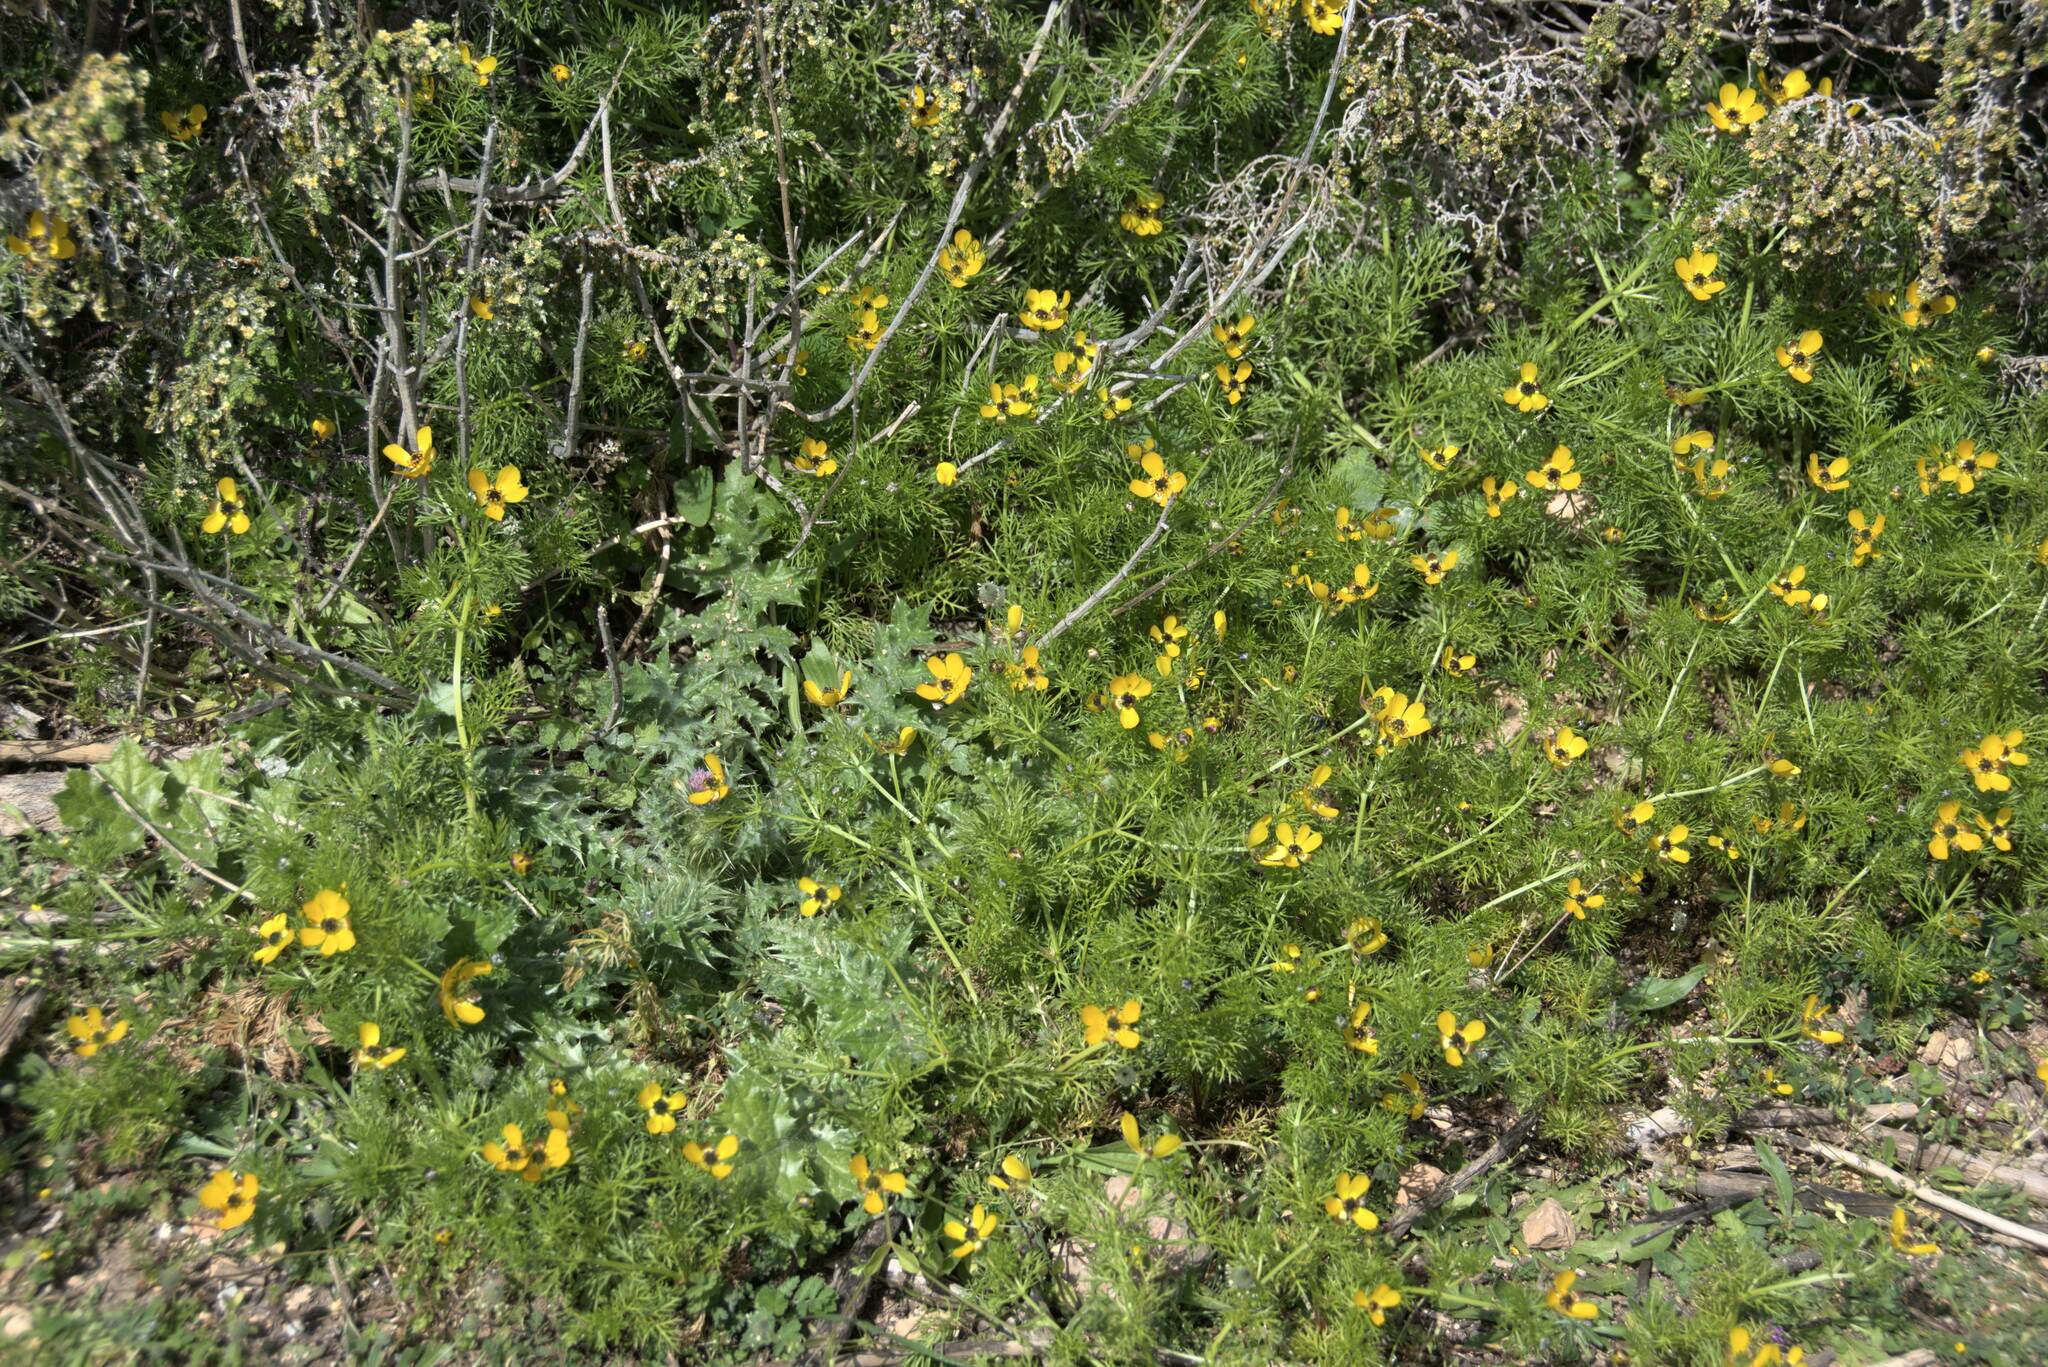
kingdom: Plantae
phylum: Tracheophyta
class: Magnoliopsida
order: Ranunculales
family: Ranunculaceae
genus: Adonis
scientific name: Adonis cretica
